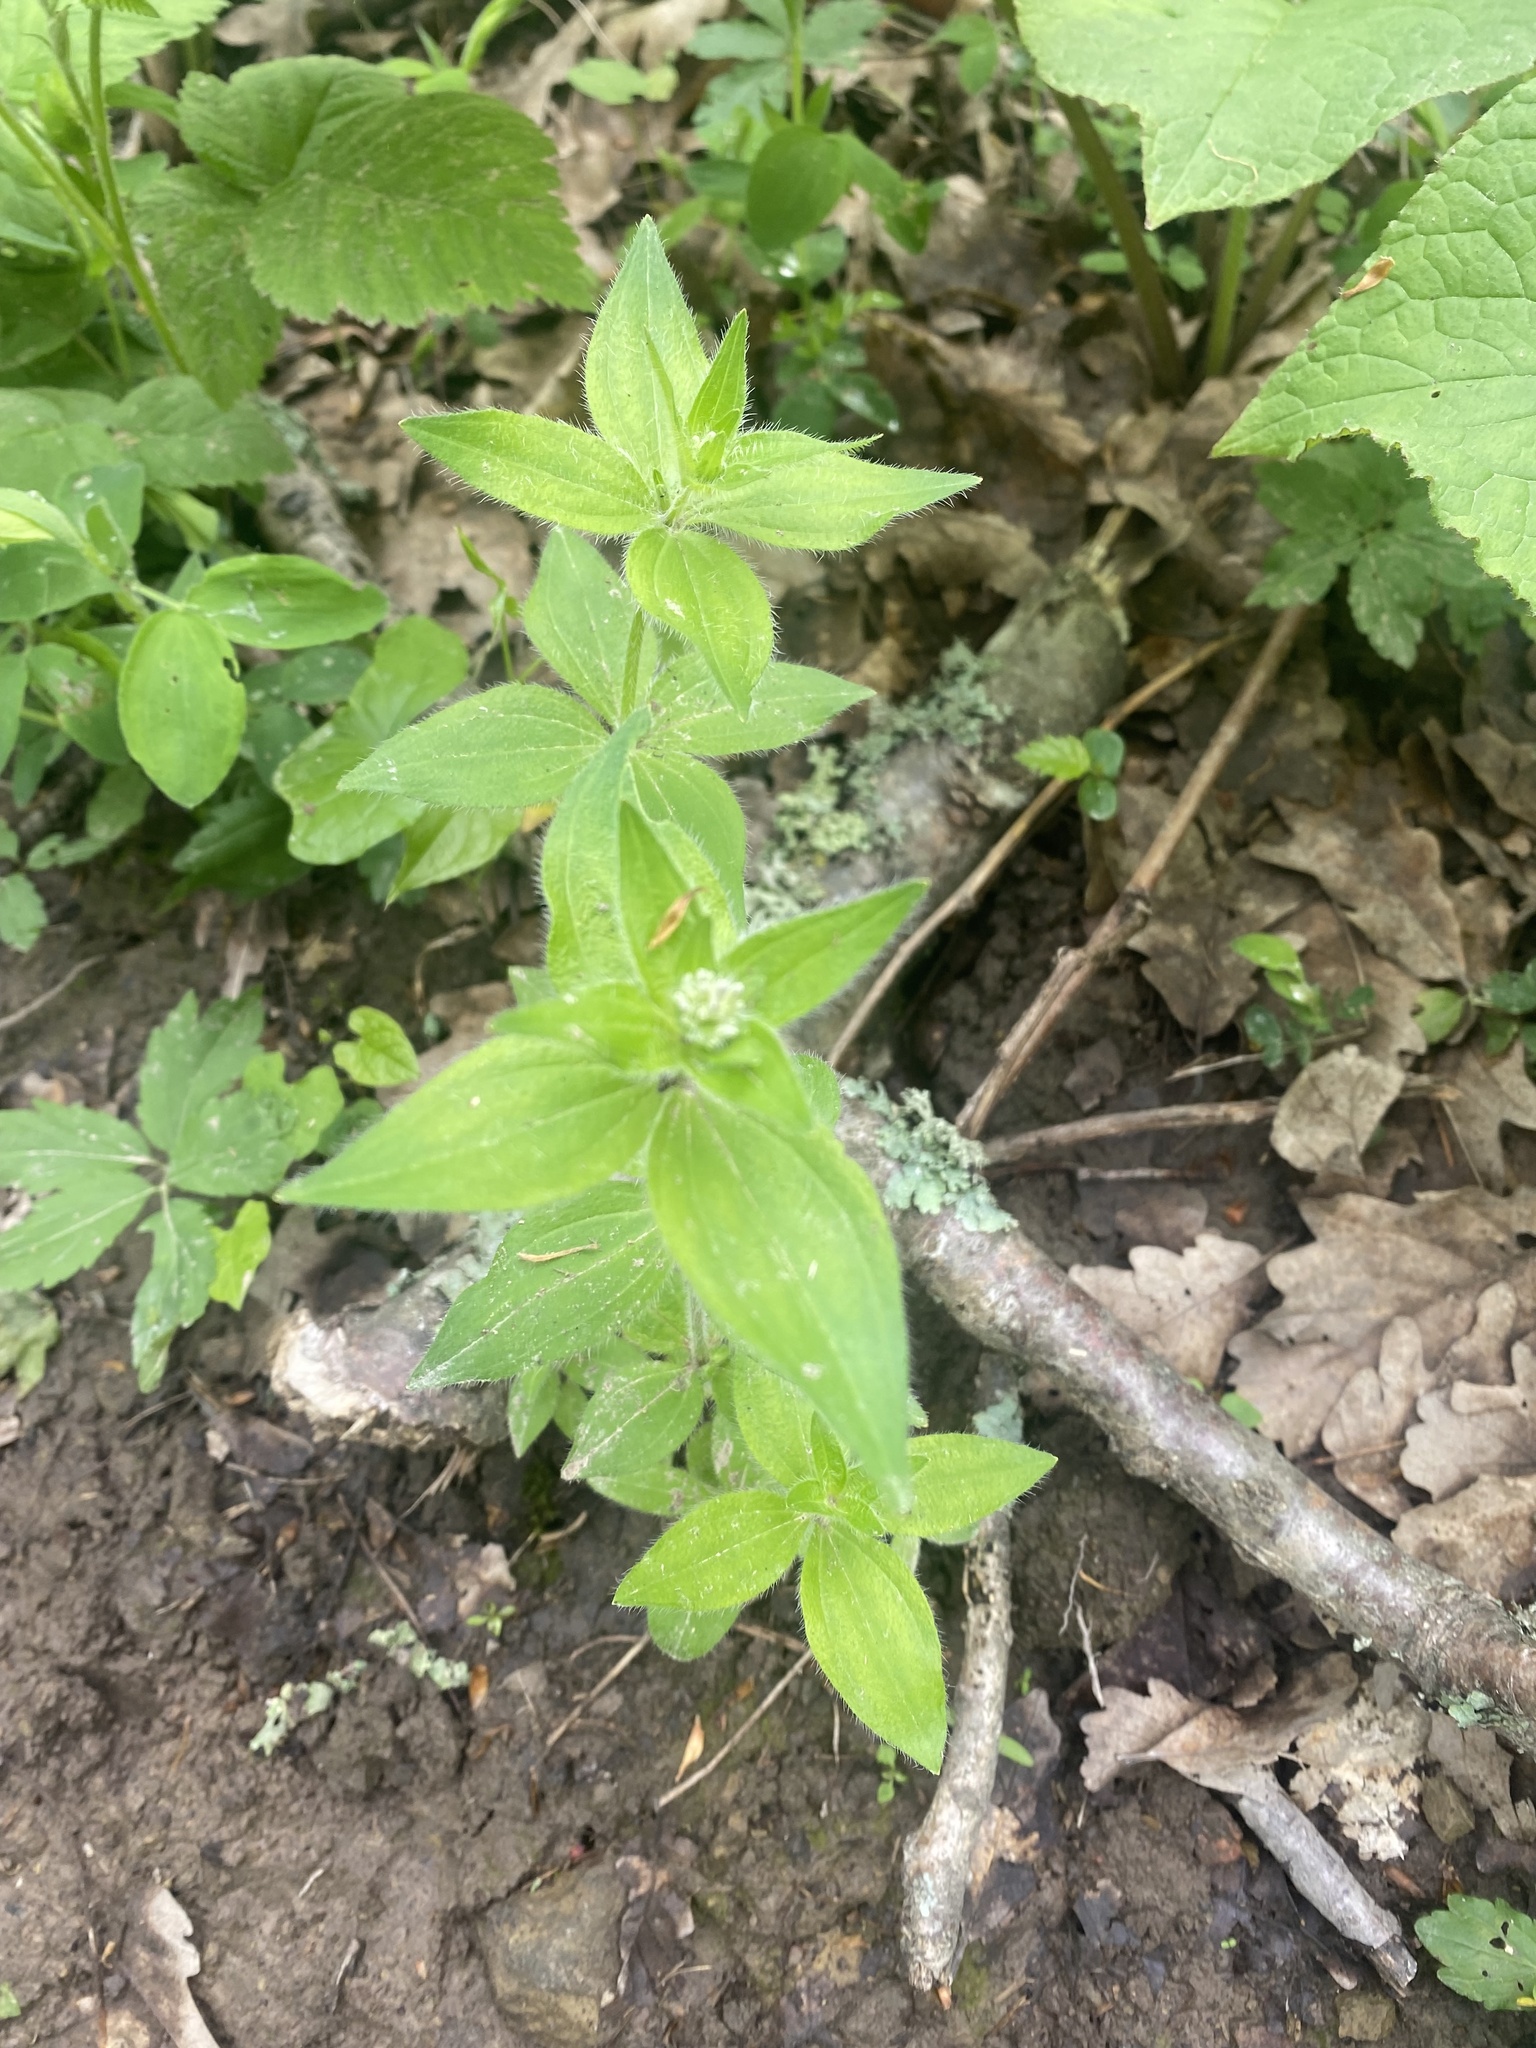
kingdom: Plantae
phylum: Tracheophyta
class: Magnoliopsida
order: Gentianales
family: Rubiaceae
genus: Asperula
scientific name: Asperula taurina
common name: Pink woodruff
